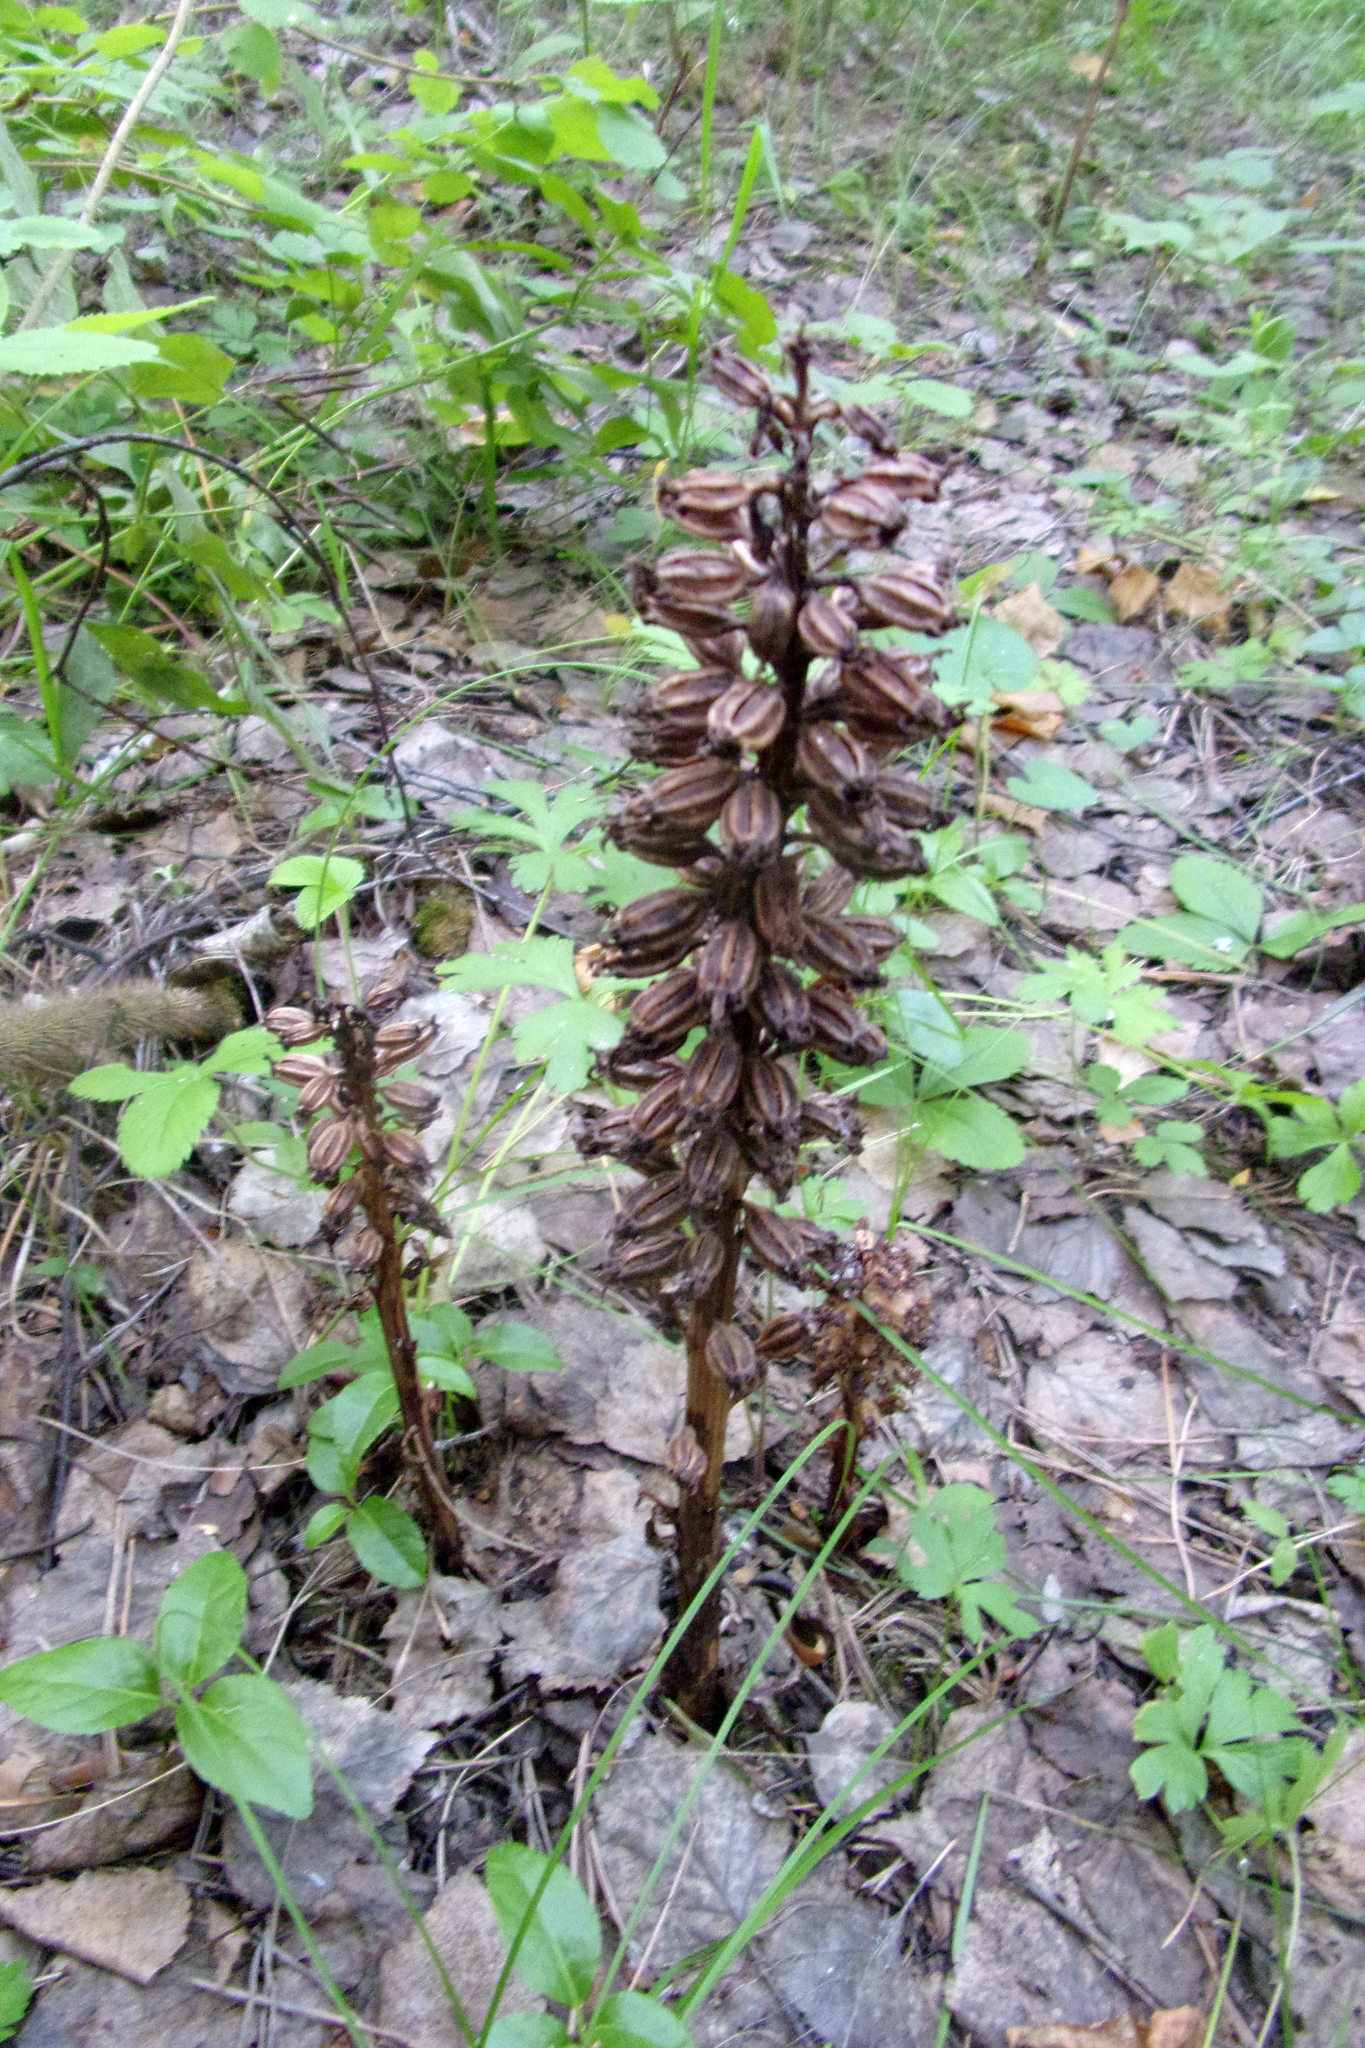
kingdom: Plantae
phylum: Tracheophyta
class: Liliopsida
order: Asparagales
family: Orchidaceae
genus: Neottia
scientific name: Neottia nidus-avis
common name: Bird's-nest orchid
